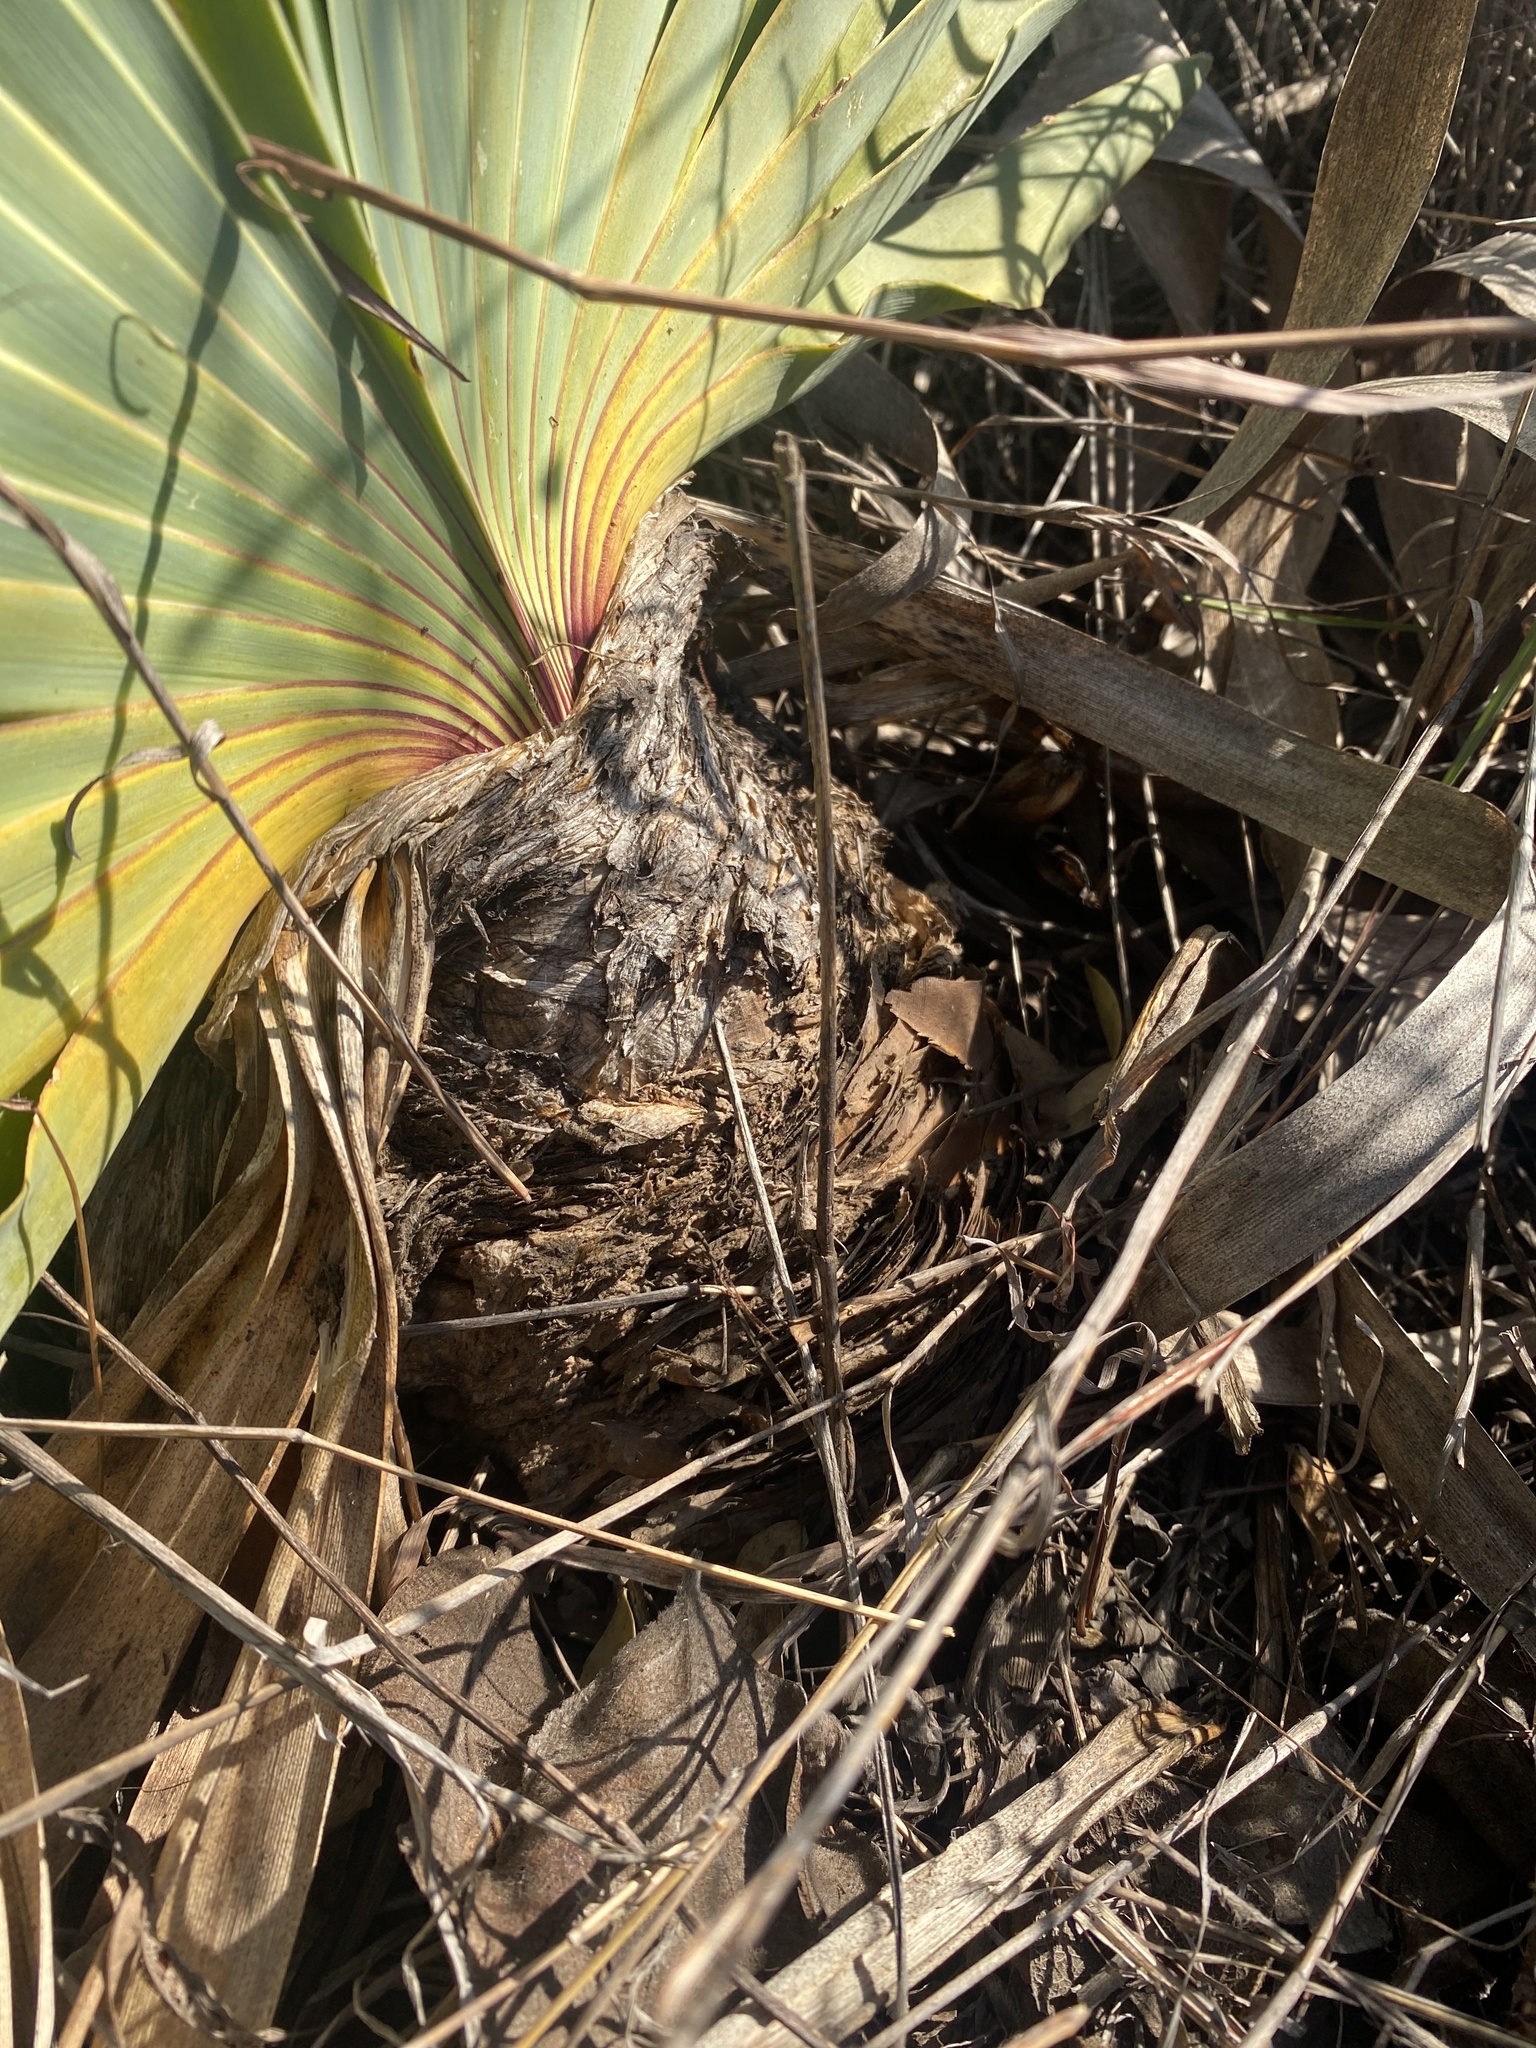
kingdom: Plantae
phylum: Tracheophyta
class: Liliopsida
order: Asparagales
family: Amaryllidaceae
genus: Boophone
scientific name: Boophone disticha
